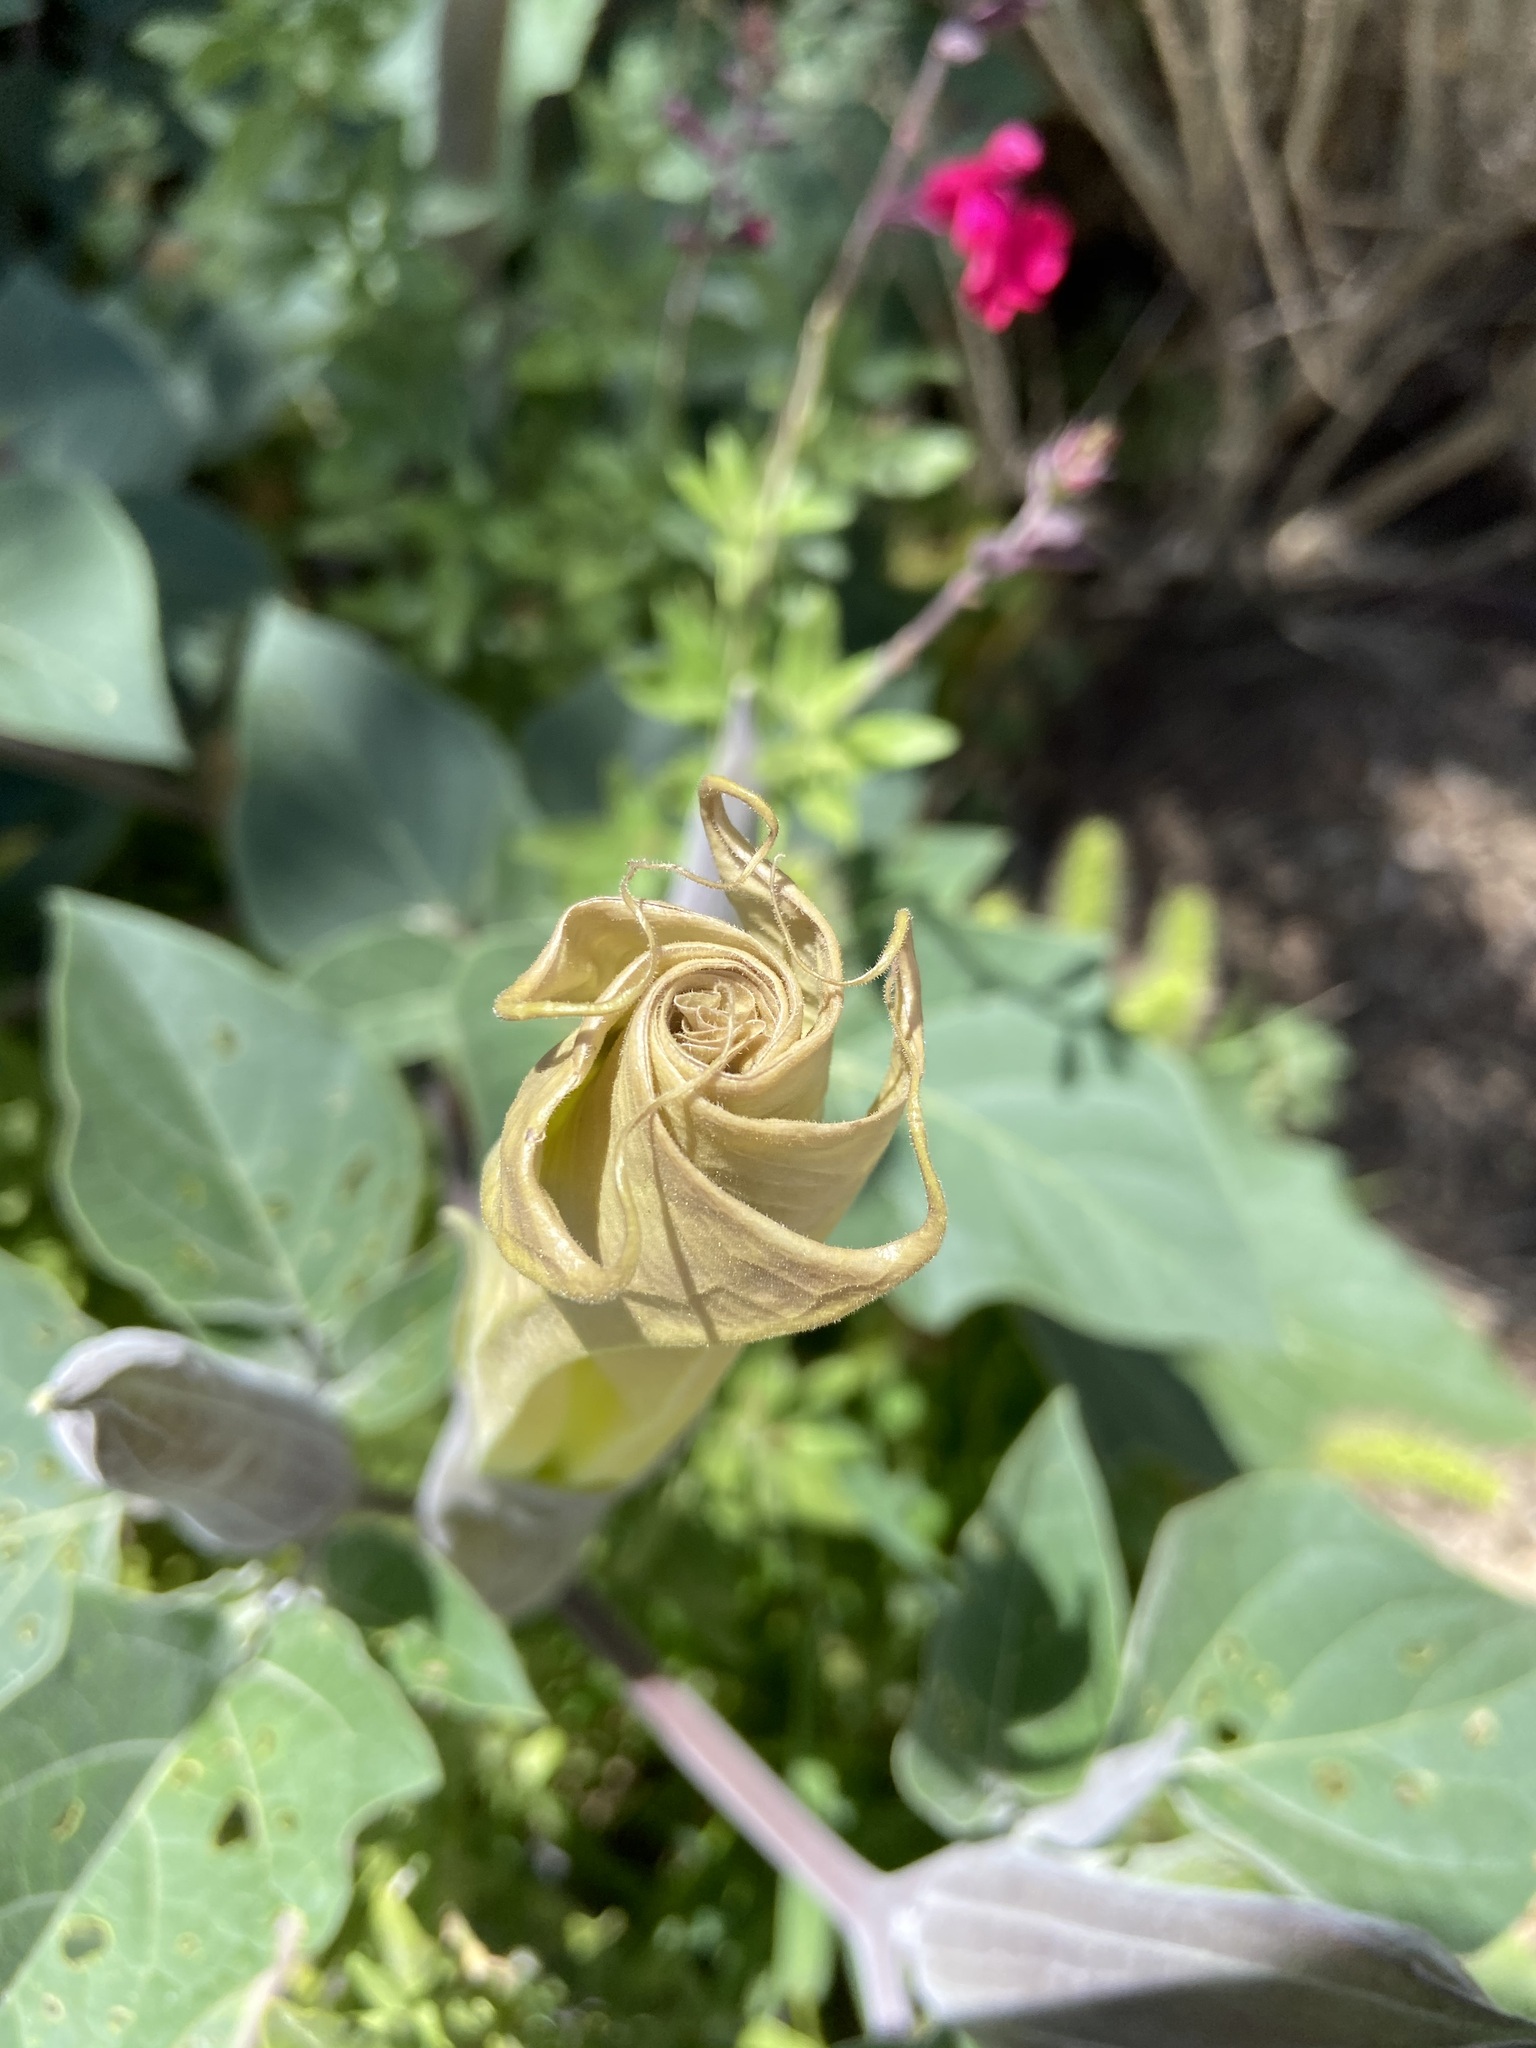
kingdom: Plantae
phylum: Tracheophyta
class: Magnoliopsida
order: Solanales
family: Solanaceae
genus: Datura
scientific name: Datura wrightii
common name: Sacred thorn-apple
